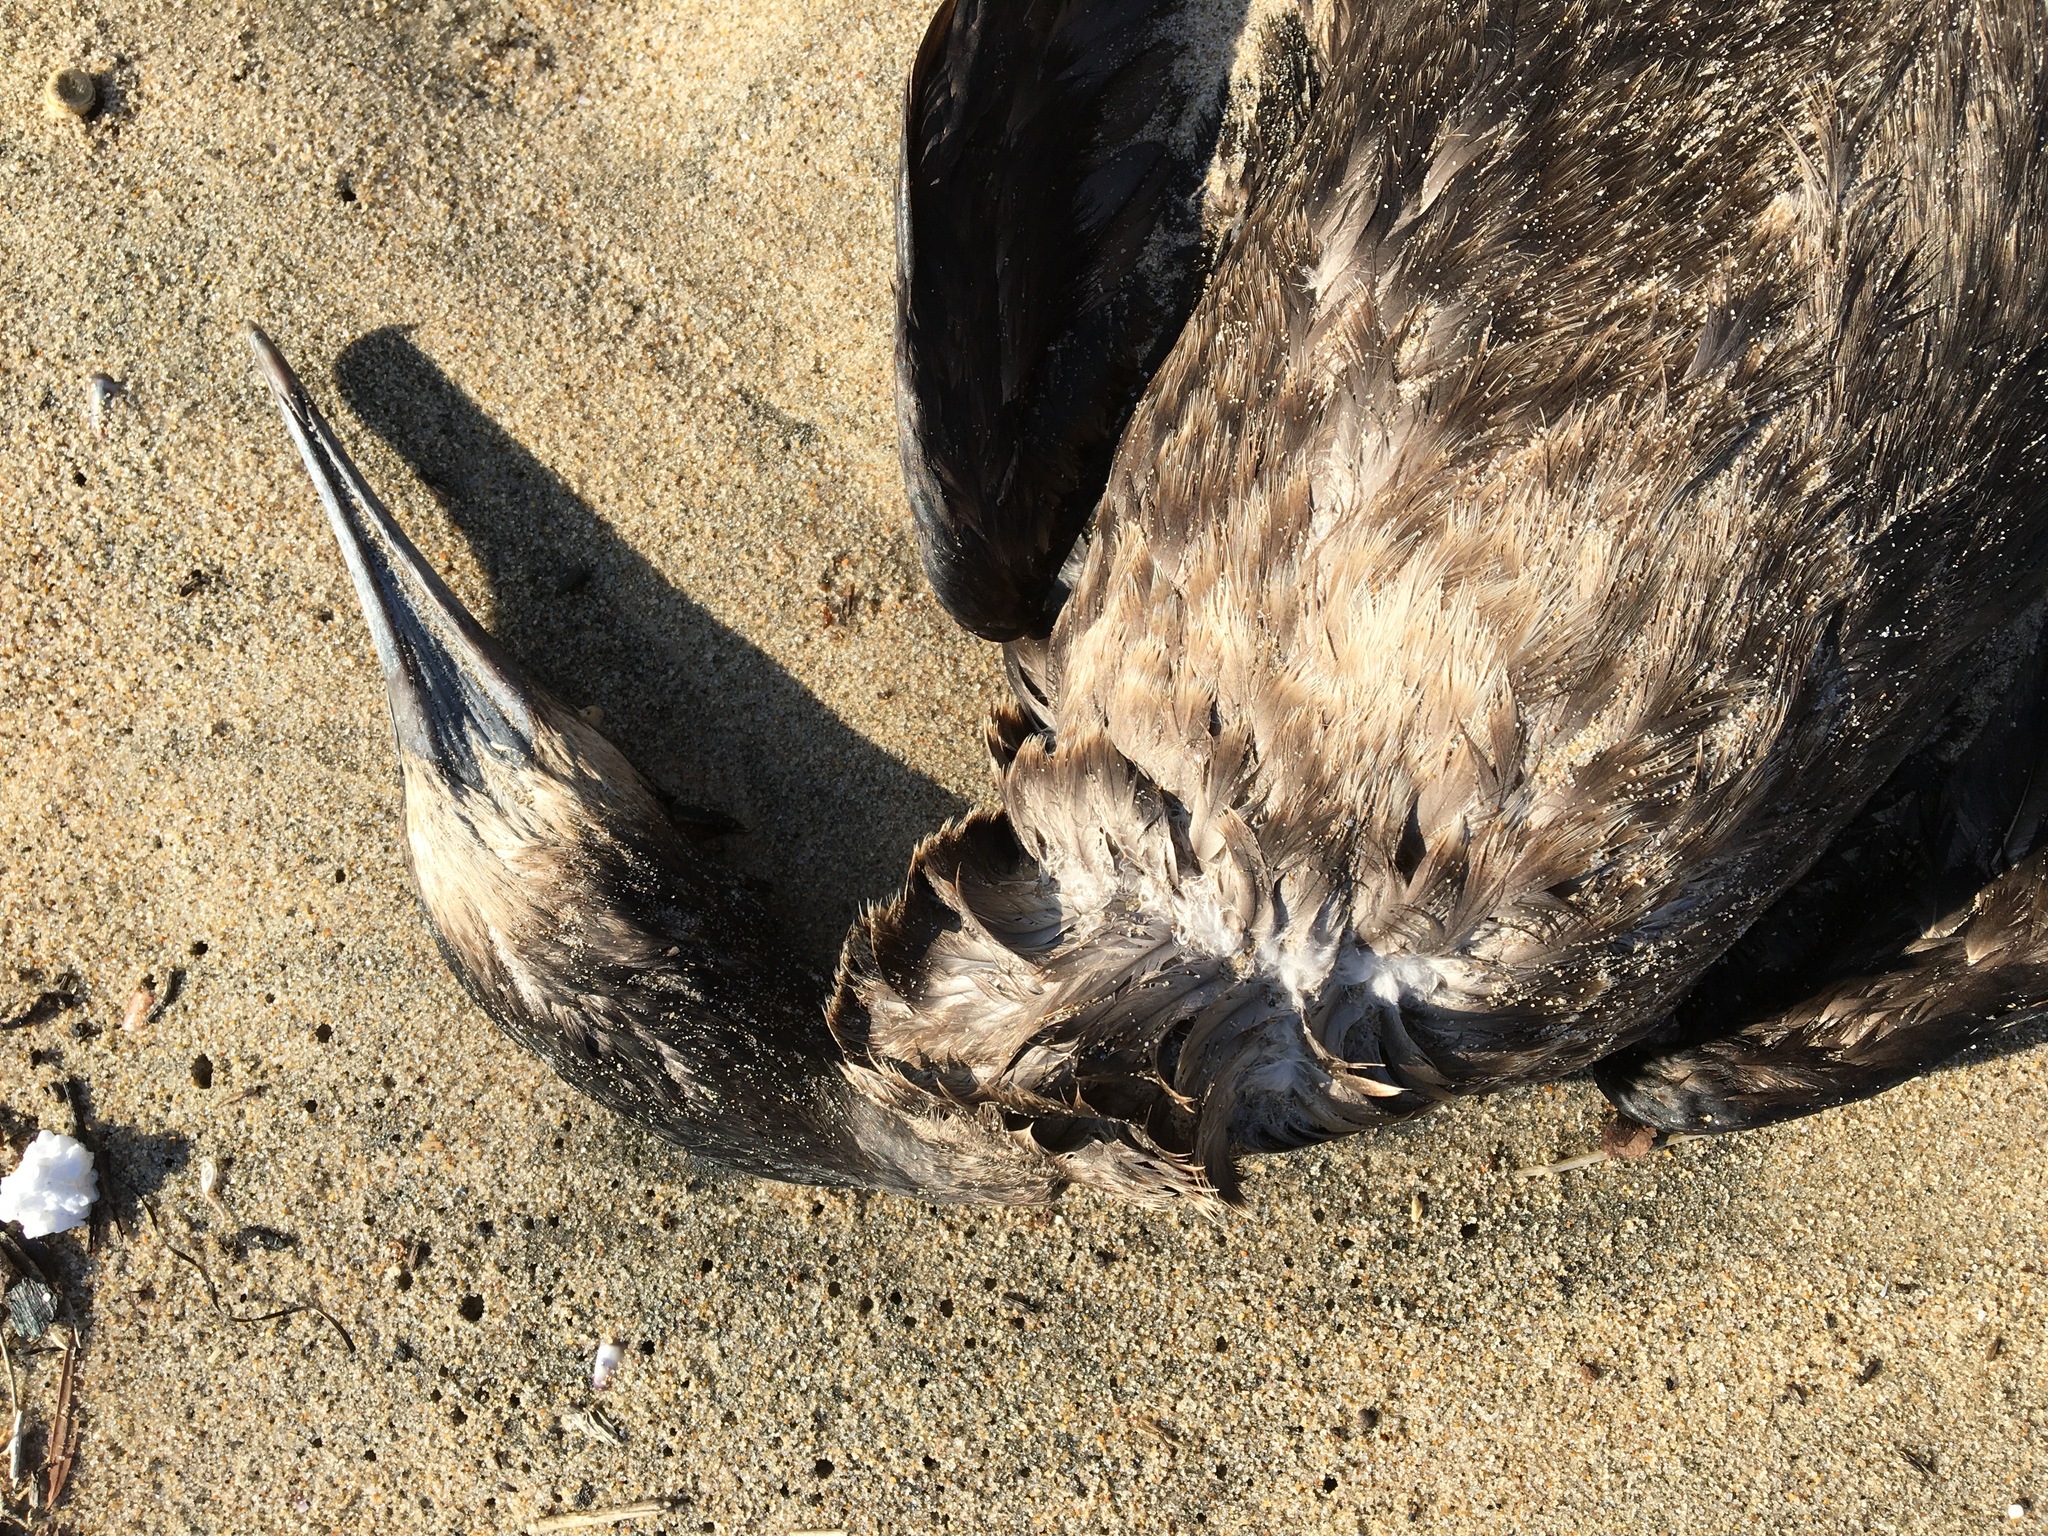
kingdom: Animalia
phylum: Chordata
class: Aves
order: Suliformes
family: Phalacrocoracidae
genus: Urile
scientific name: Urile penicillatus
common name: Brandt's cormorant
